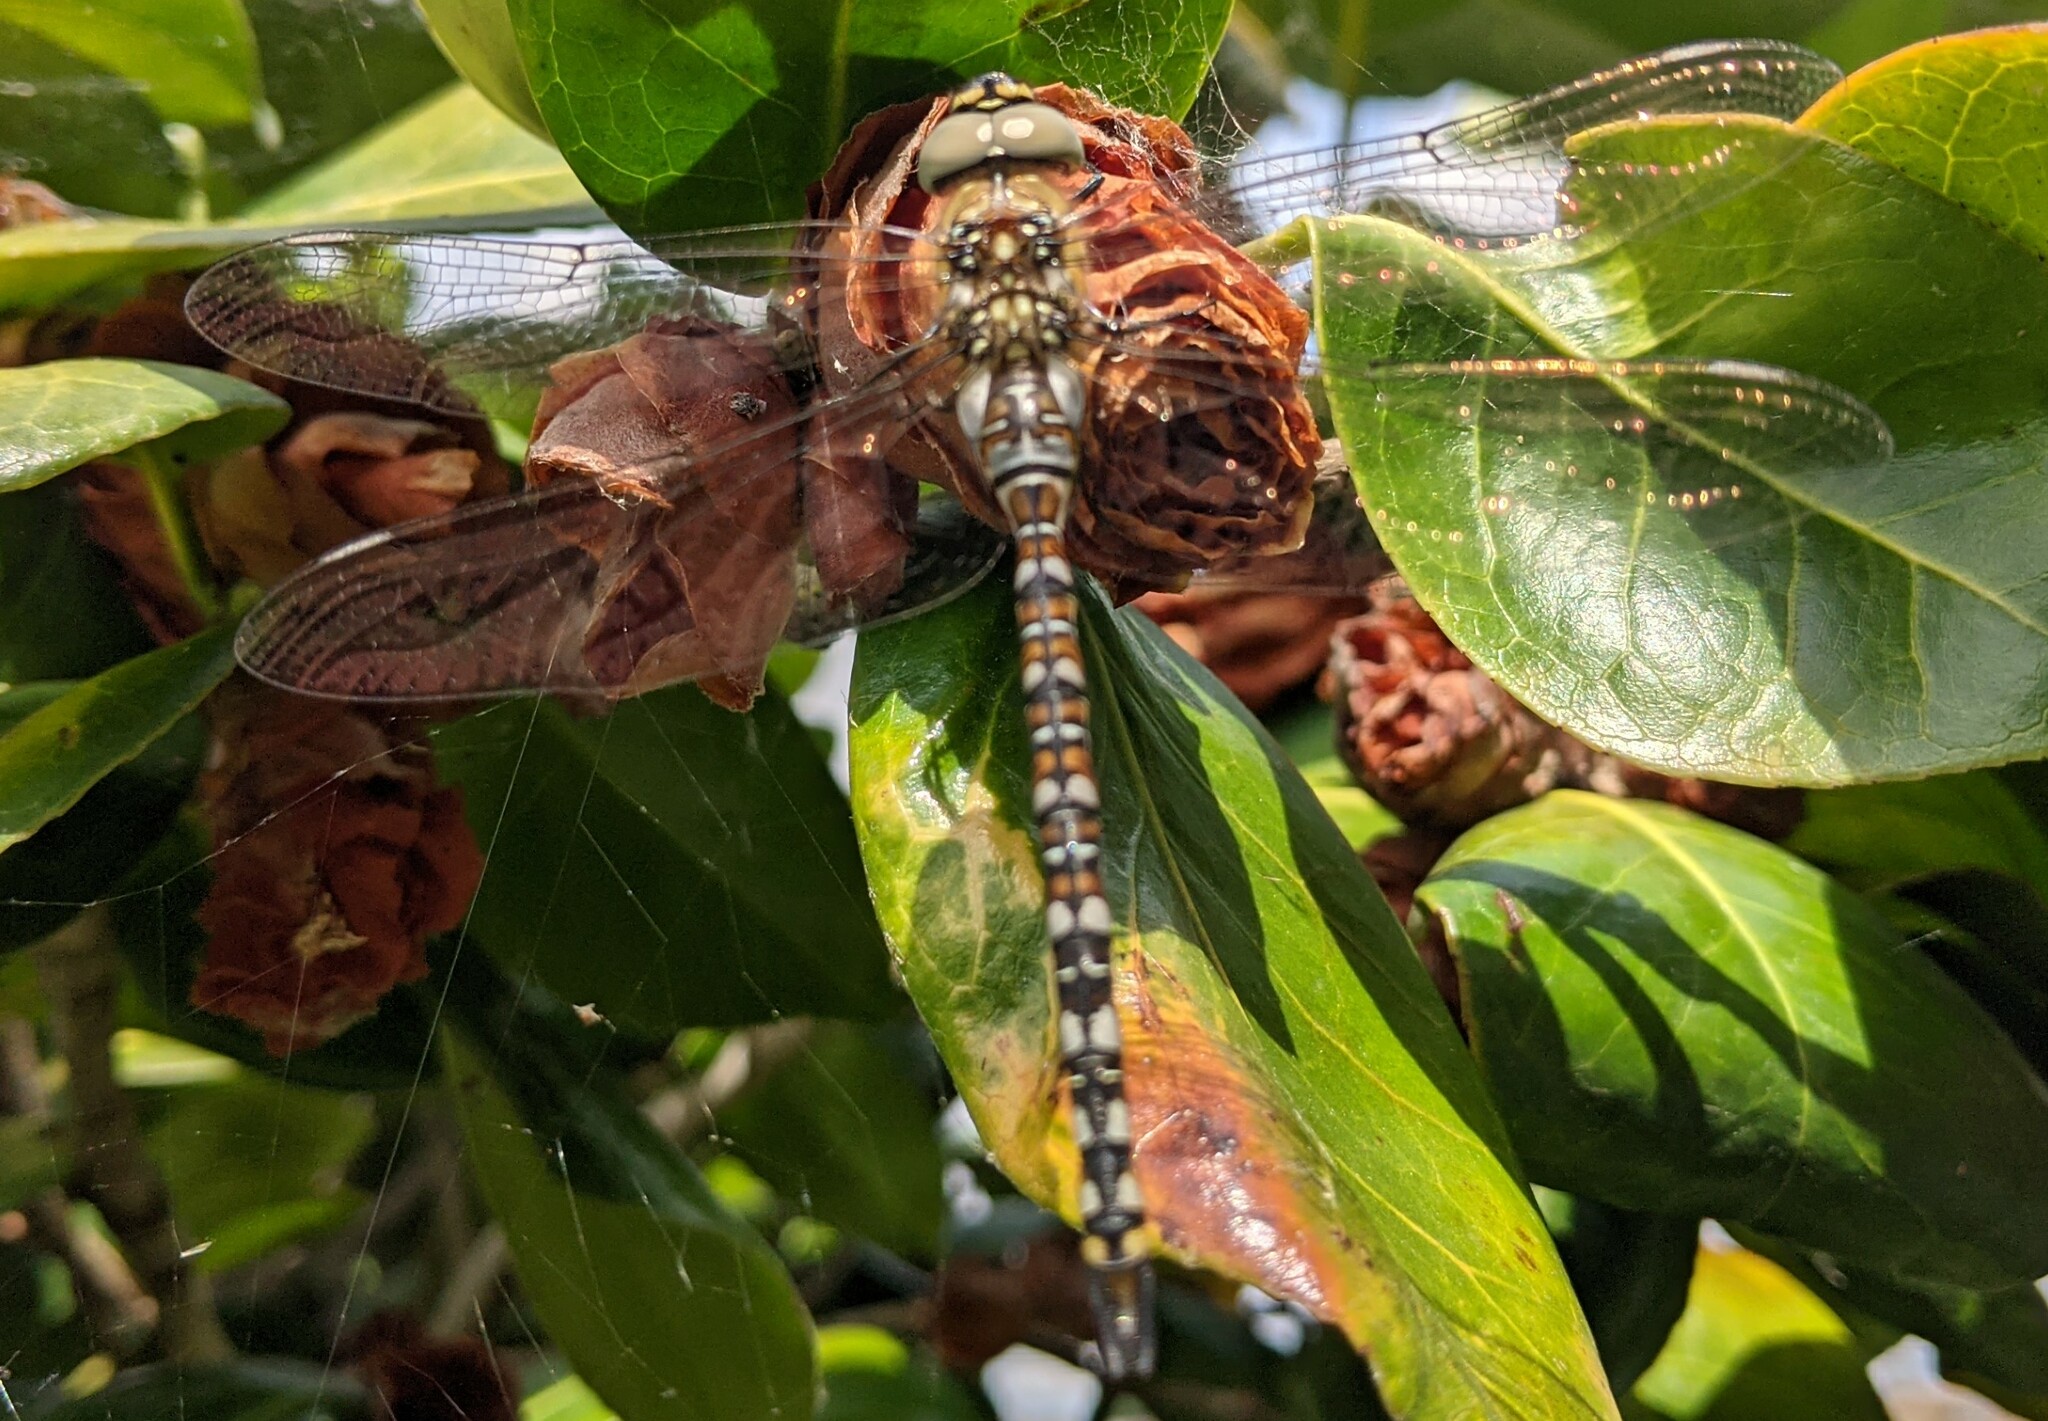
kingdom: Animalia
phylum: Arthropoda
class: Insecta
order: Odonata
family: Aeshnidae
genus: Aeshna
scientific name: Aeshna mixta
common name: Migrant hawker
